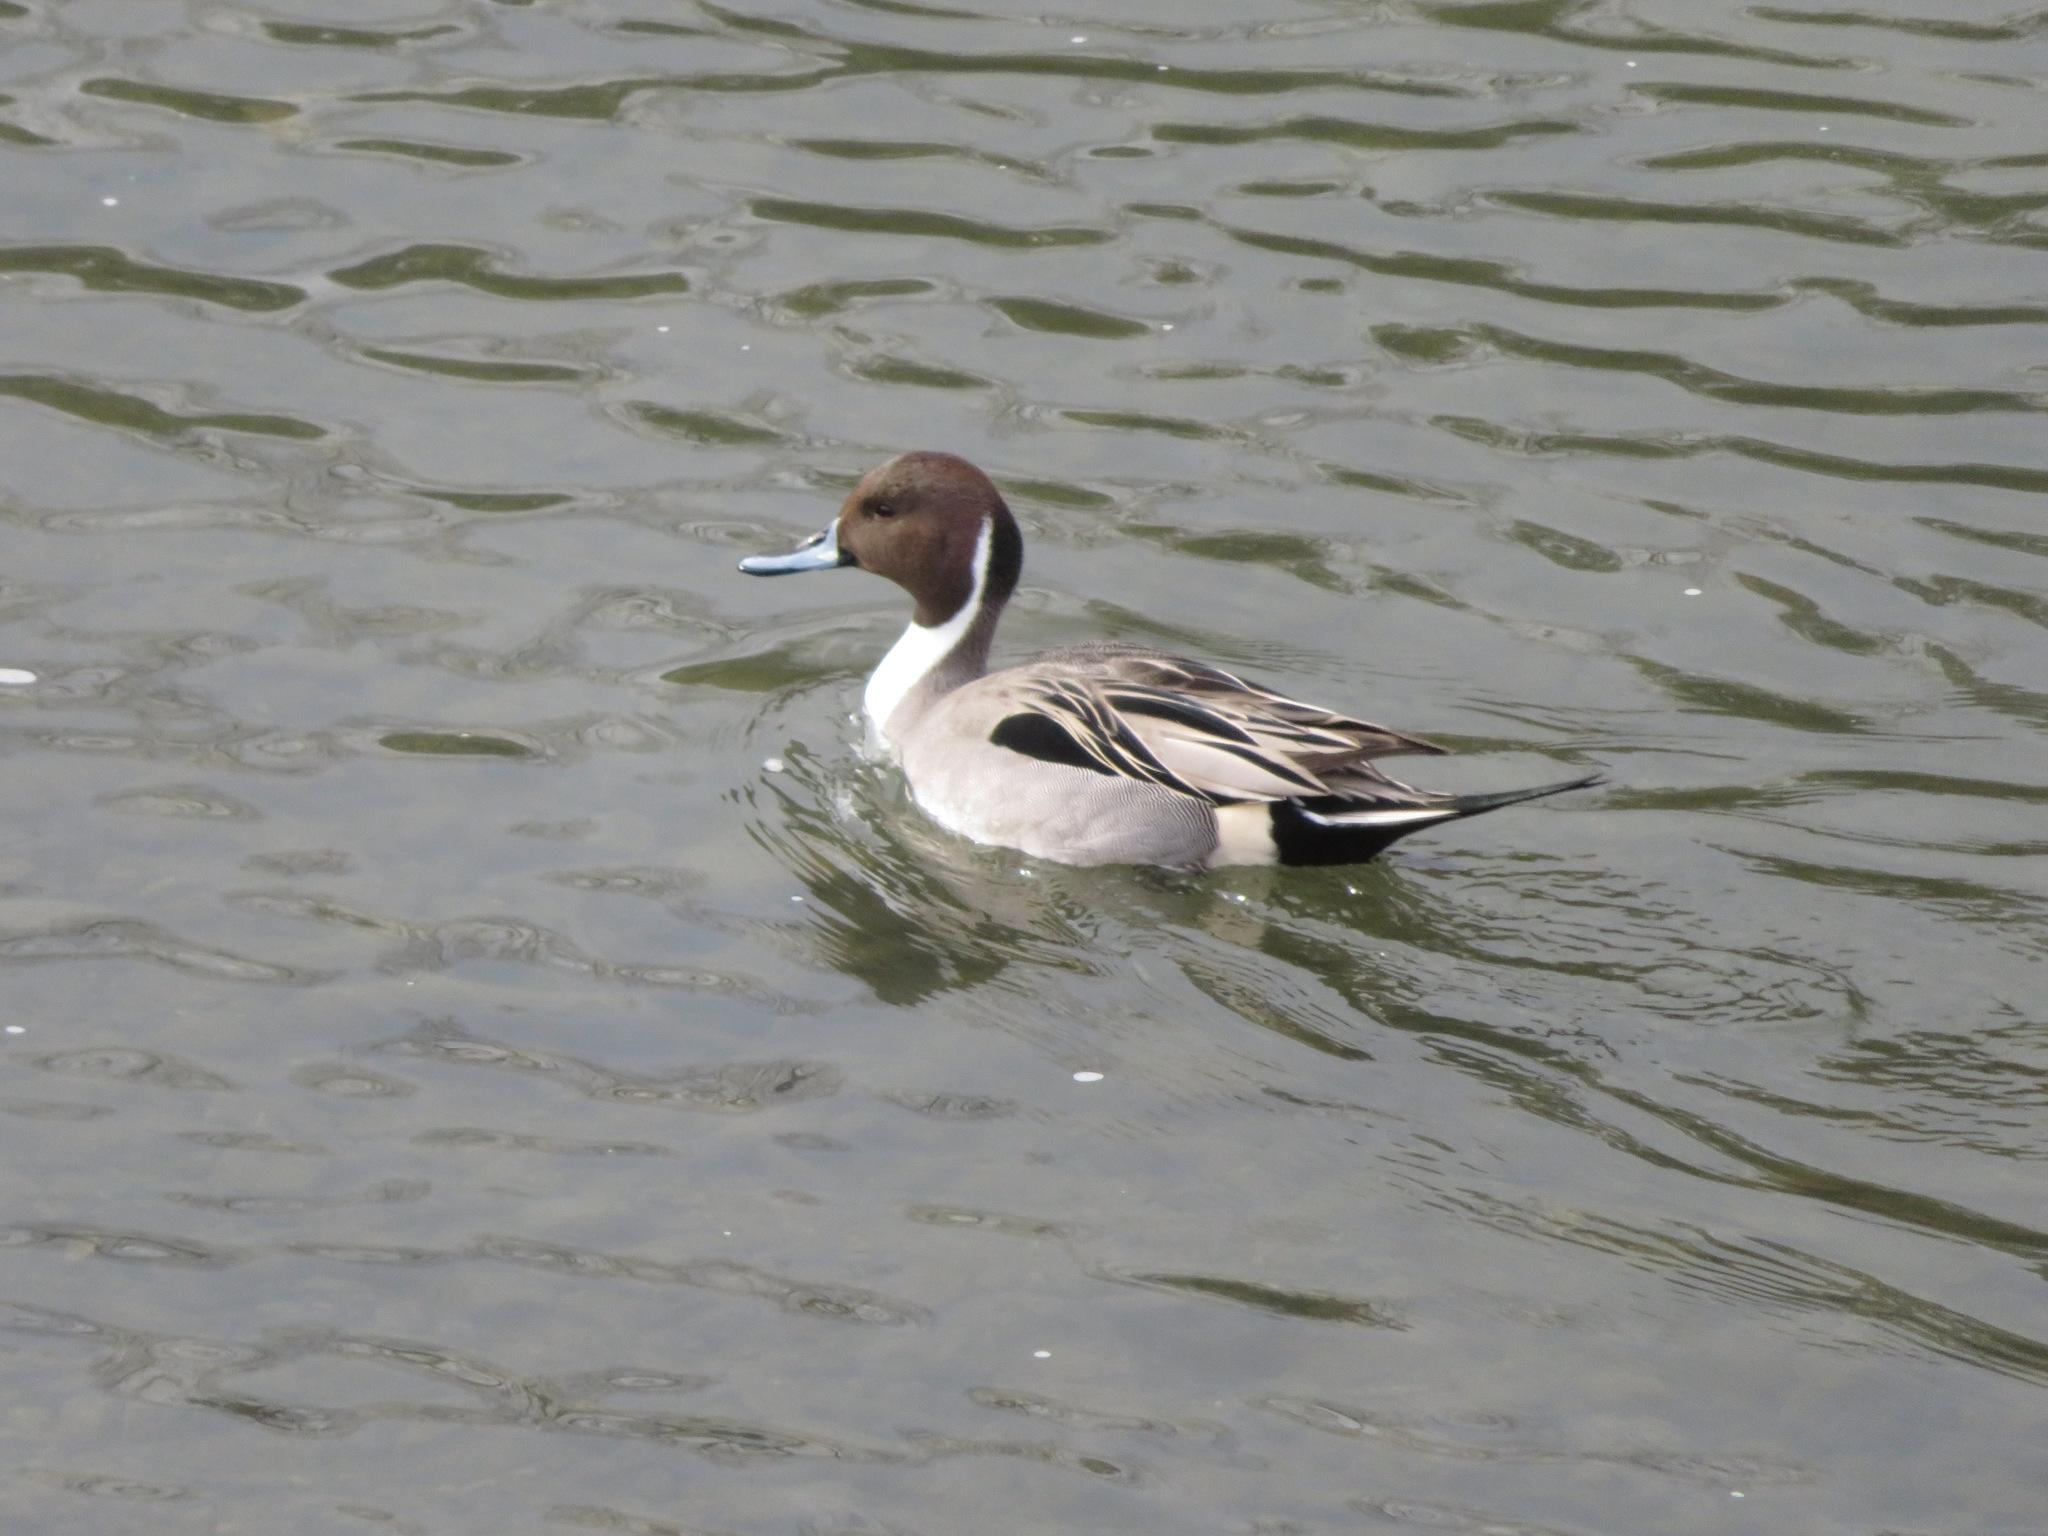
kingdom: Animalia
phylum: Chordata
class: Aves
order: Anseriformes
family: Anatidae
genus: Anas
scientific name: Anas acuta
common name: Northern pintail
